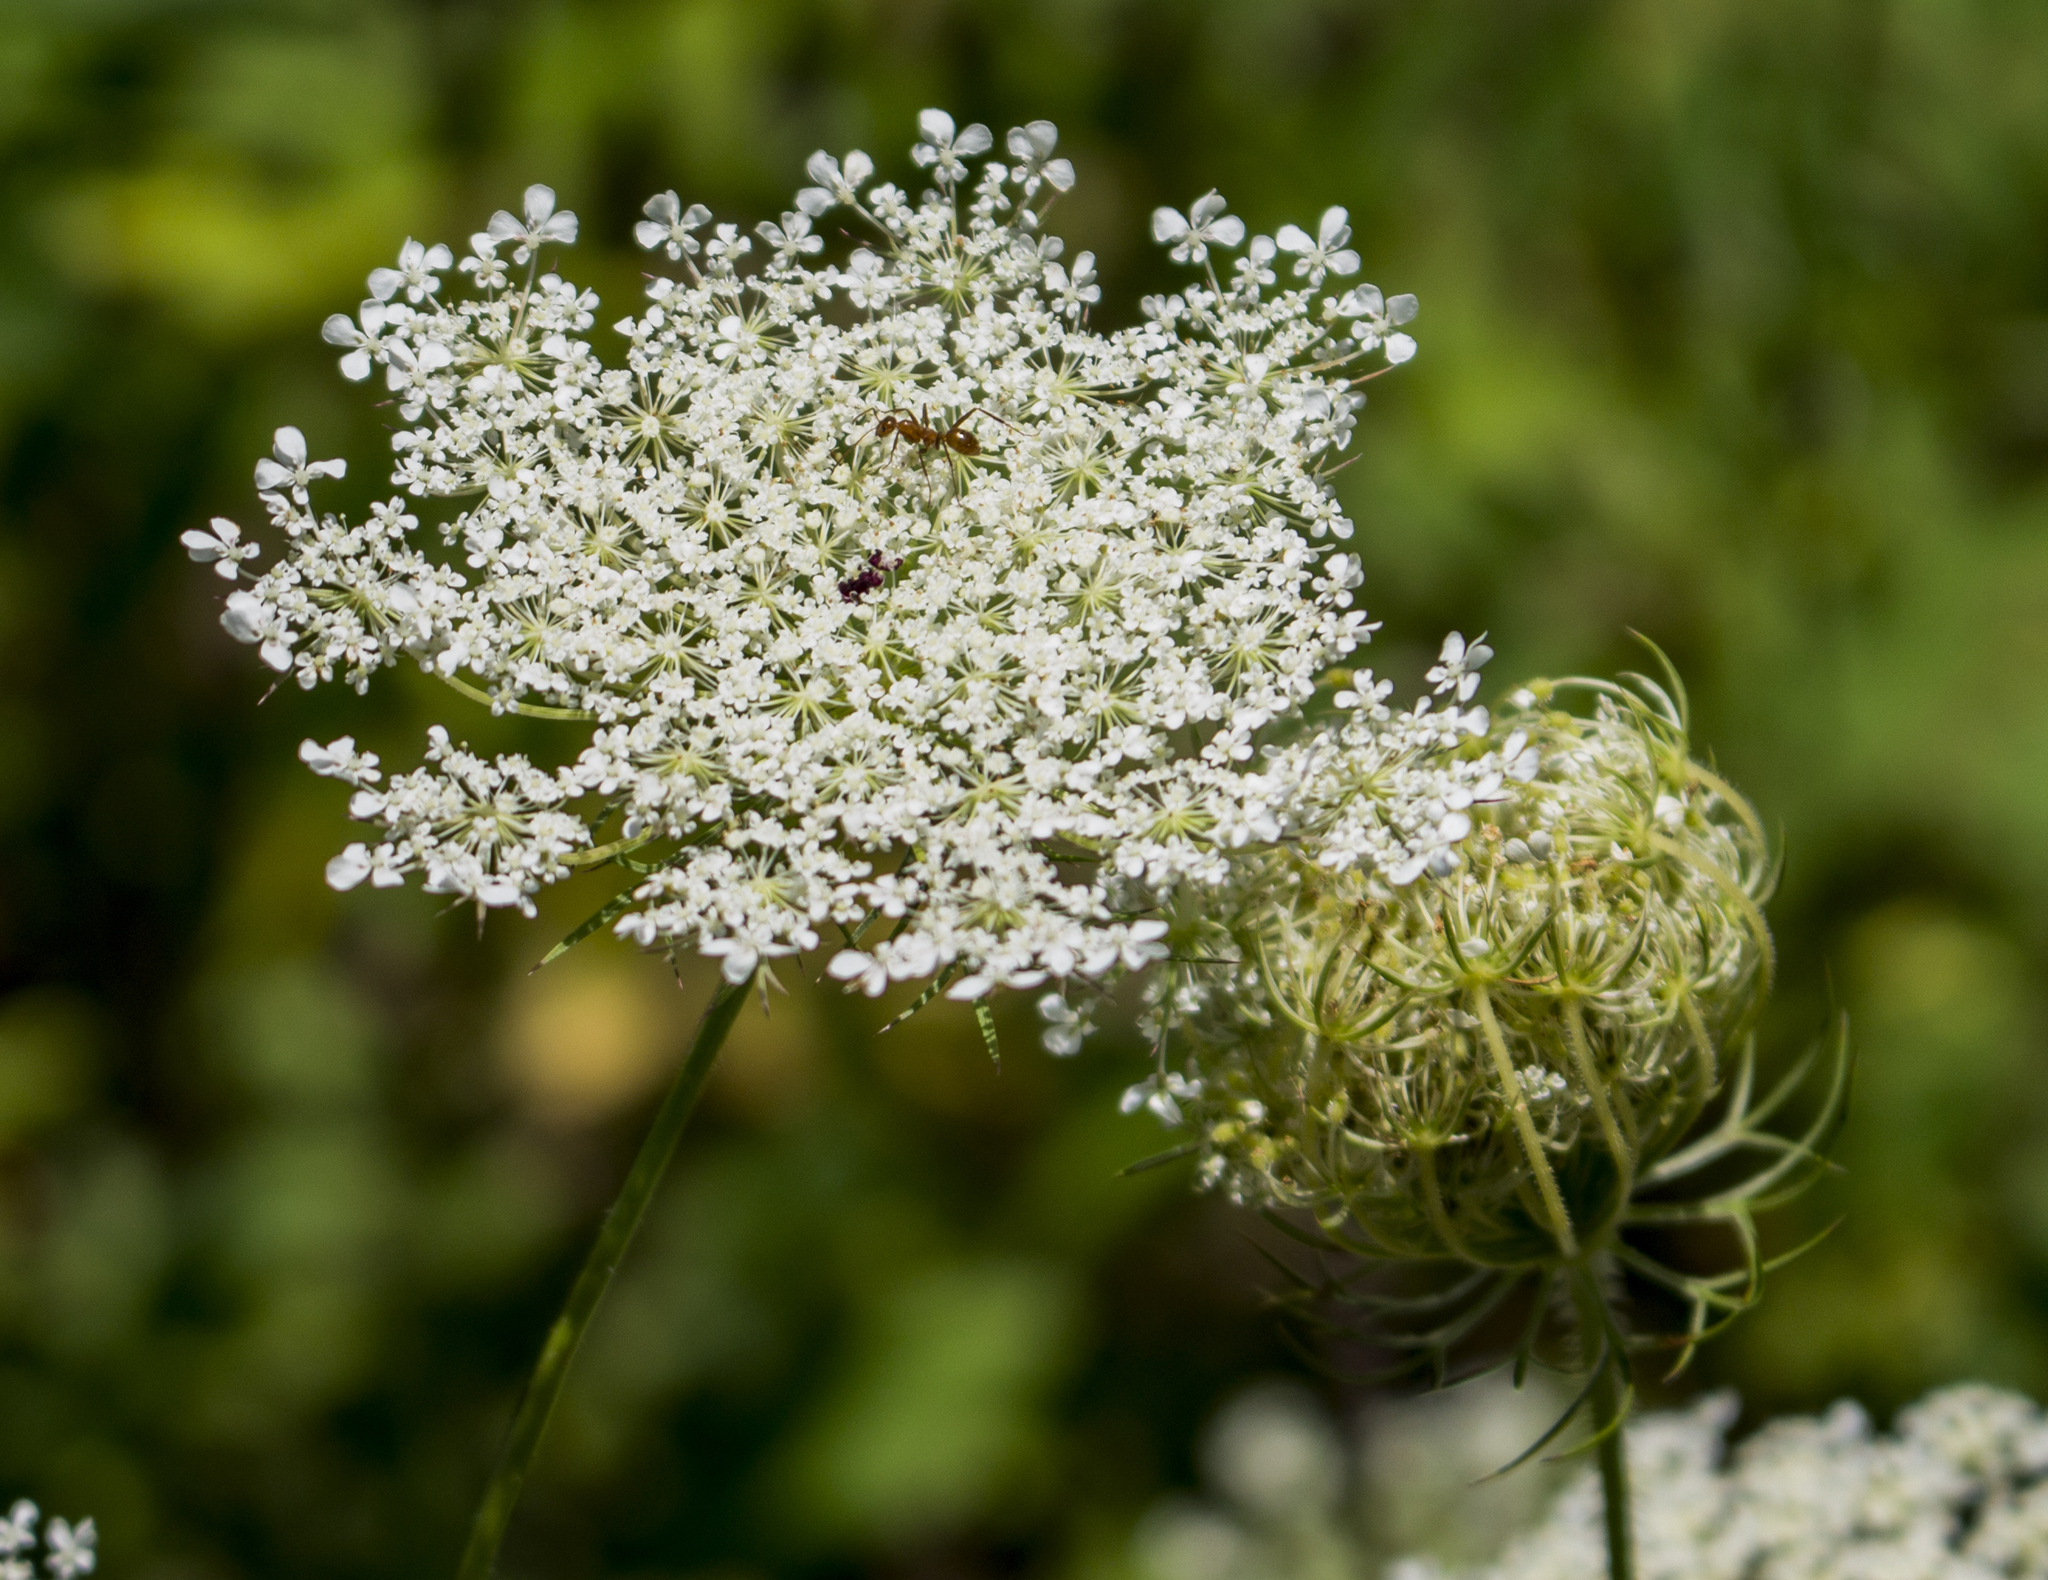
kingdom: Plantae
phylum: Tracheophyta
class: Magnoliopsida
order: Apiales
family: Apiaceae
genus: Daucus
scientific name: Daucus carota
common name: Wild carrot
